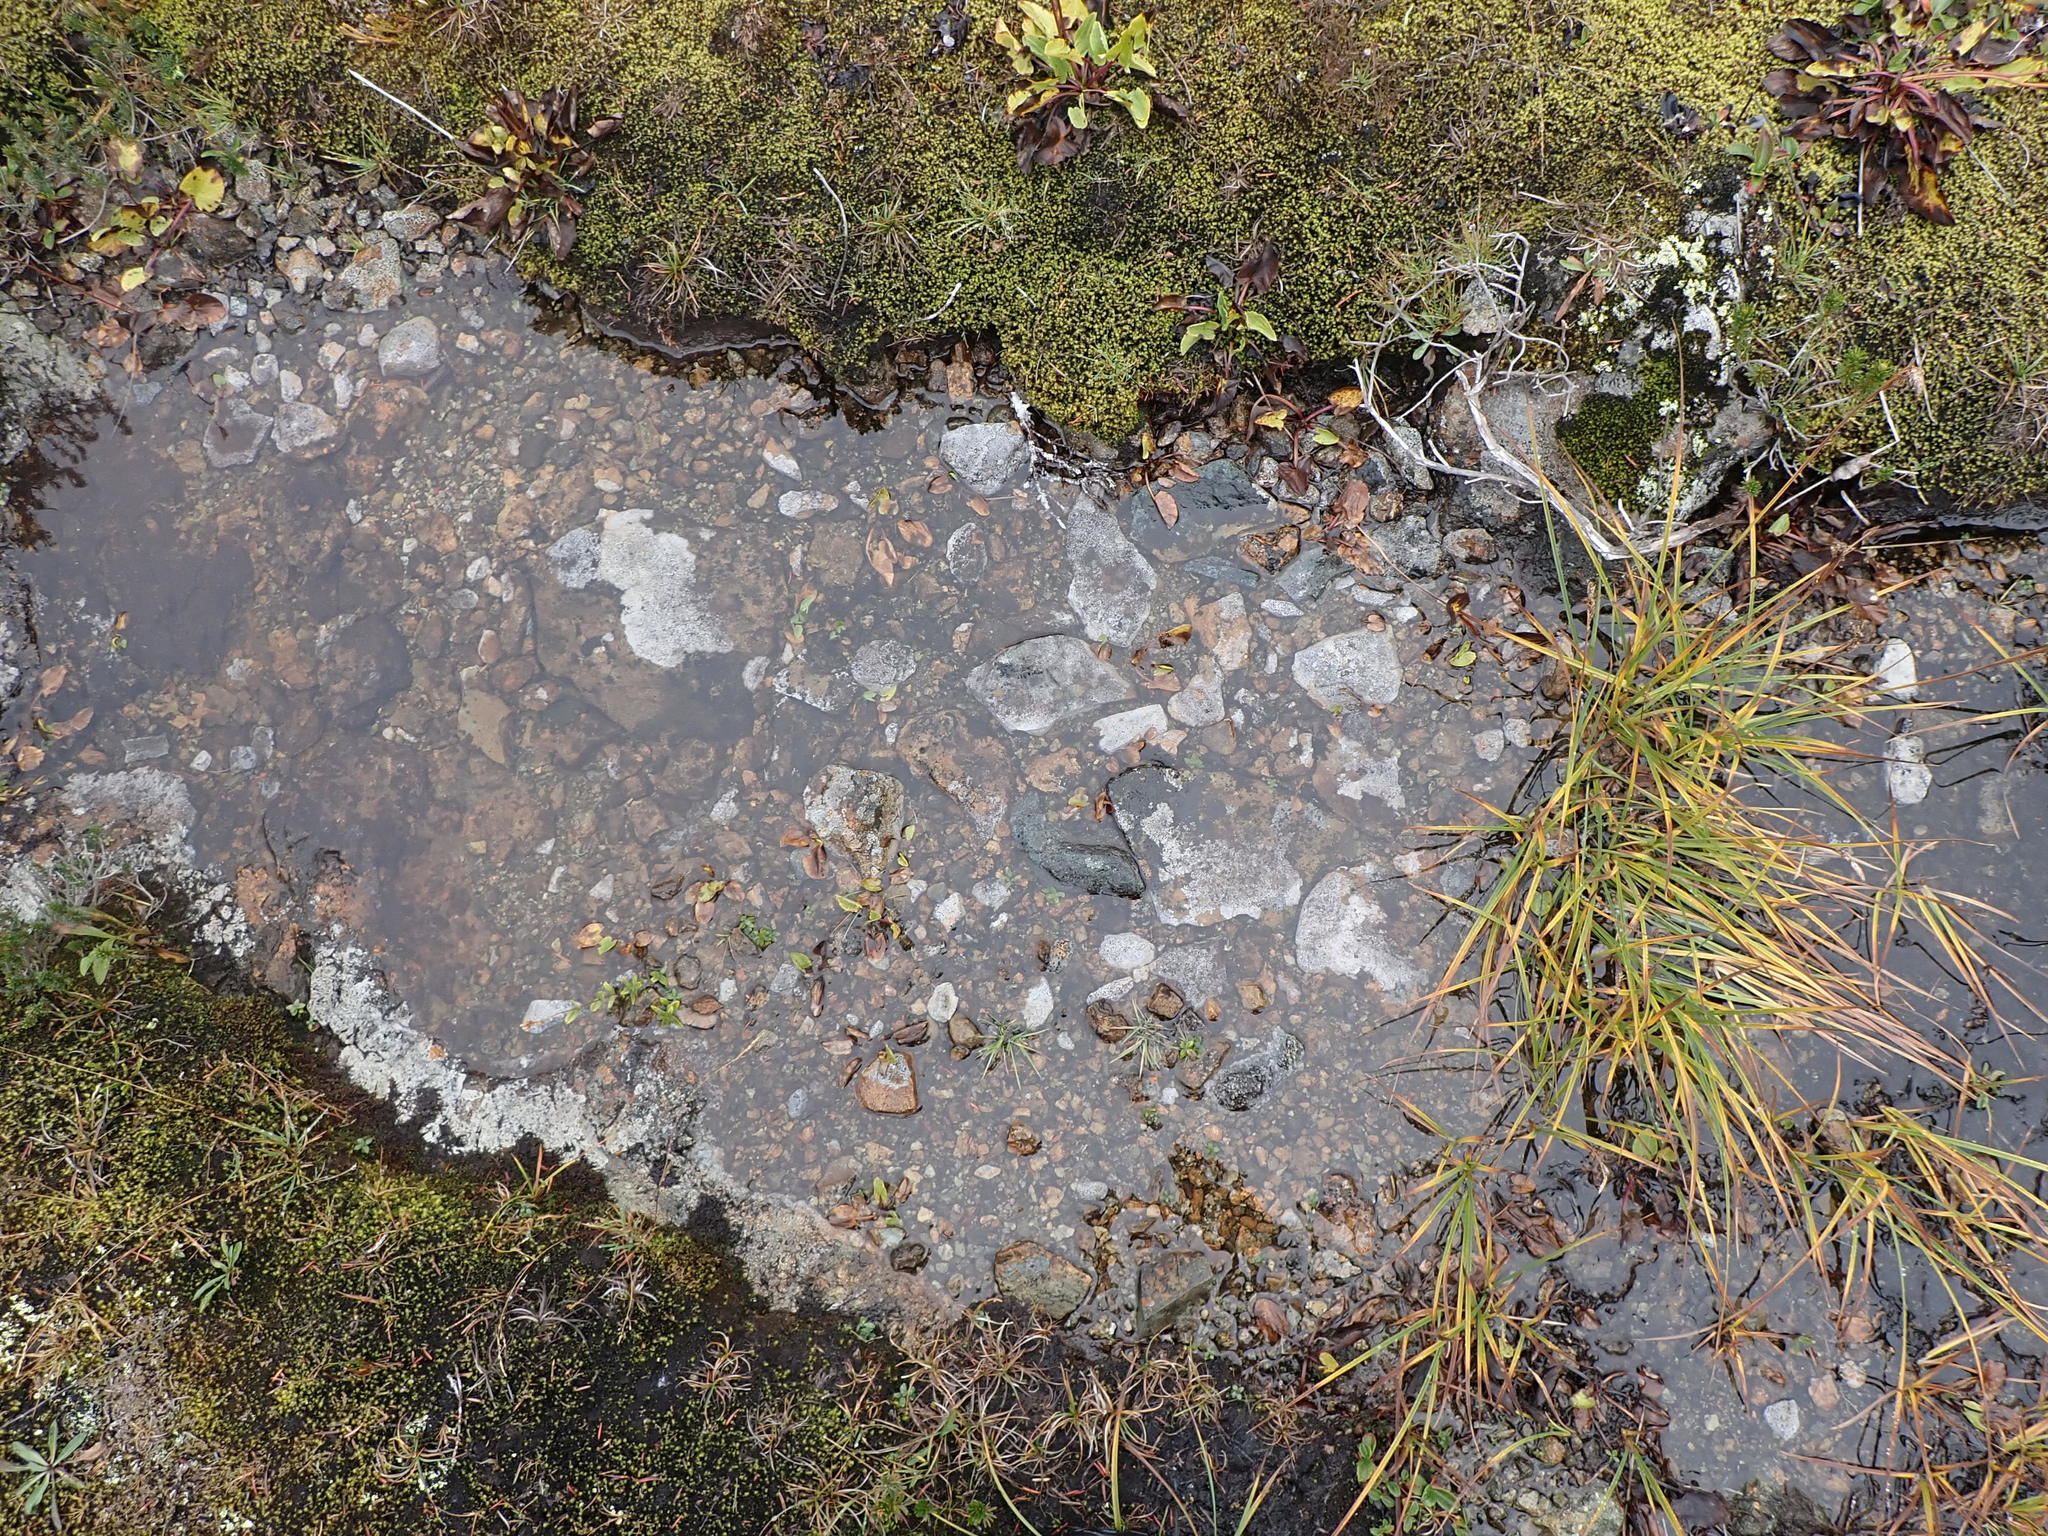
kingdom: Fungi
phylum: Ascomycota
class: Lecanoromycetes
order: Lecideales
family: Lecideaceae
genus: Amygdalaria
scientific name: Amygdalaria consentiens
